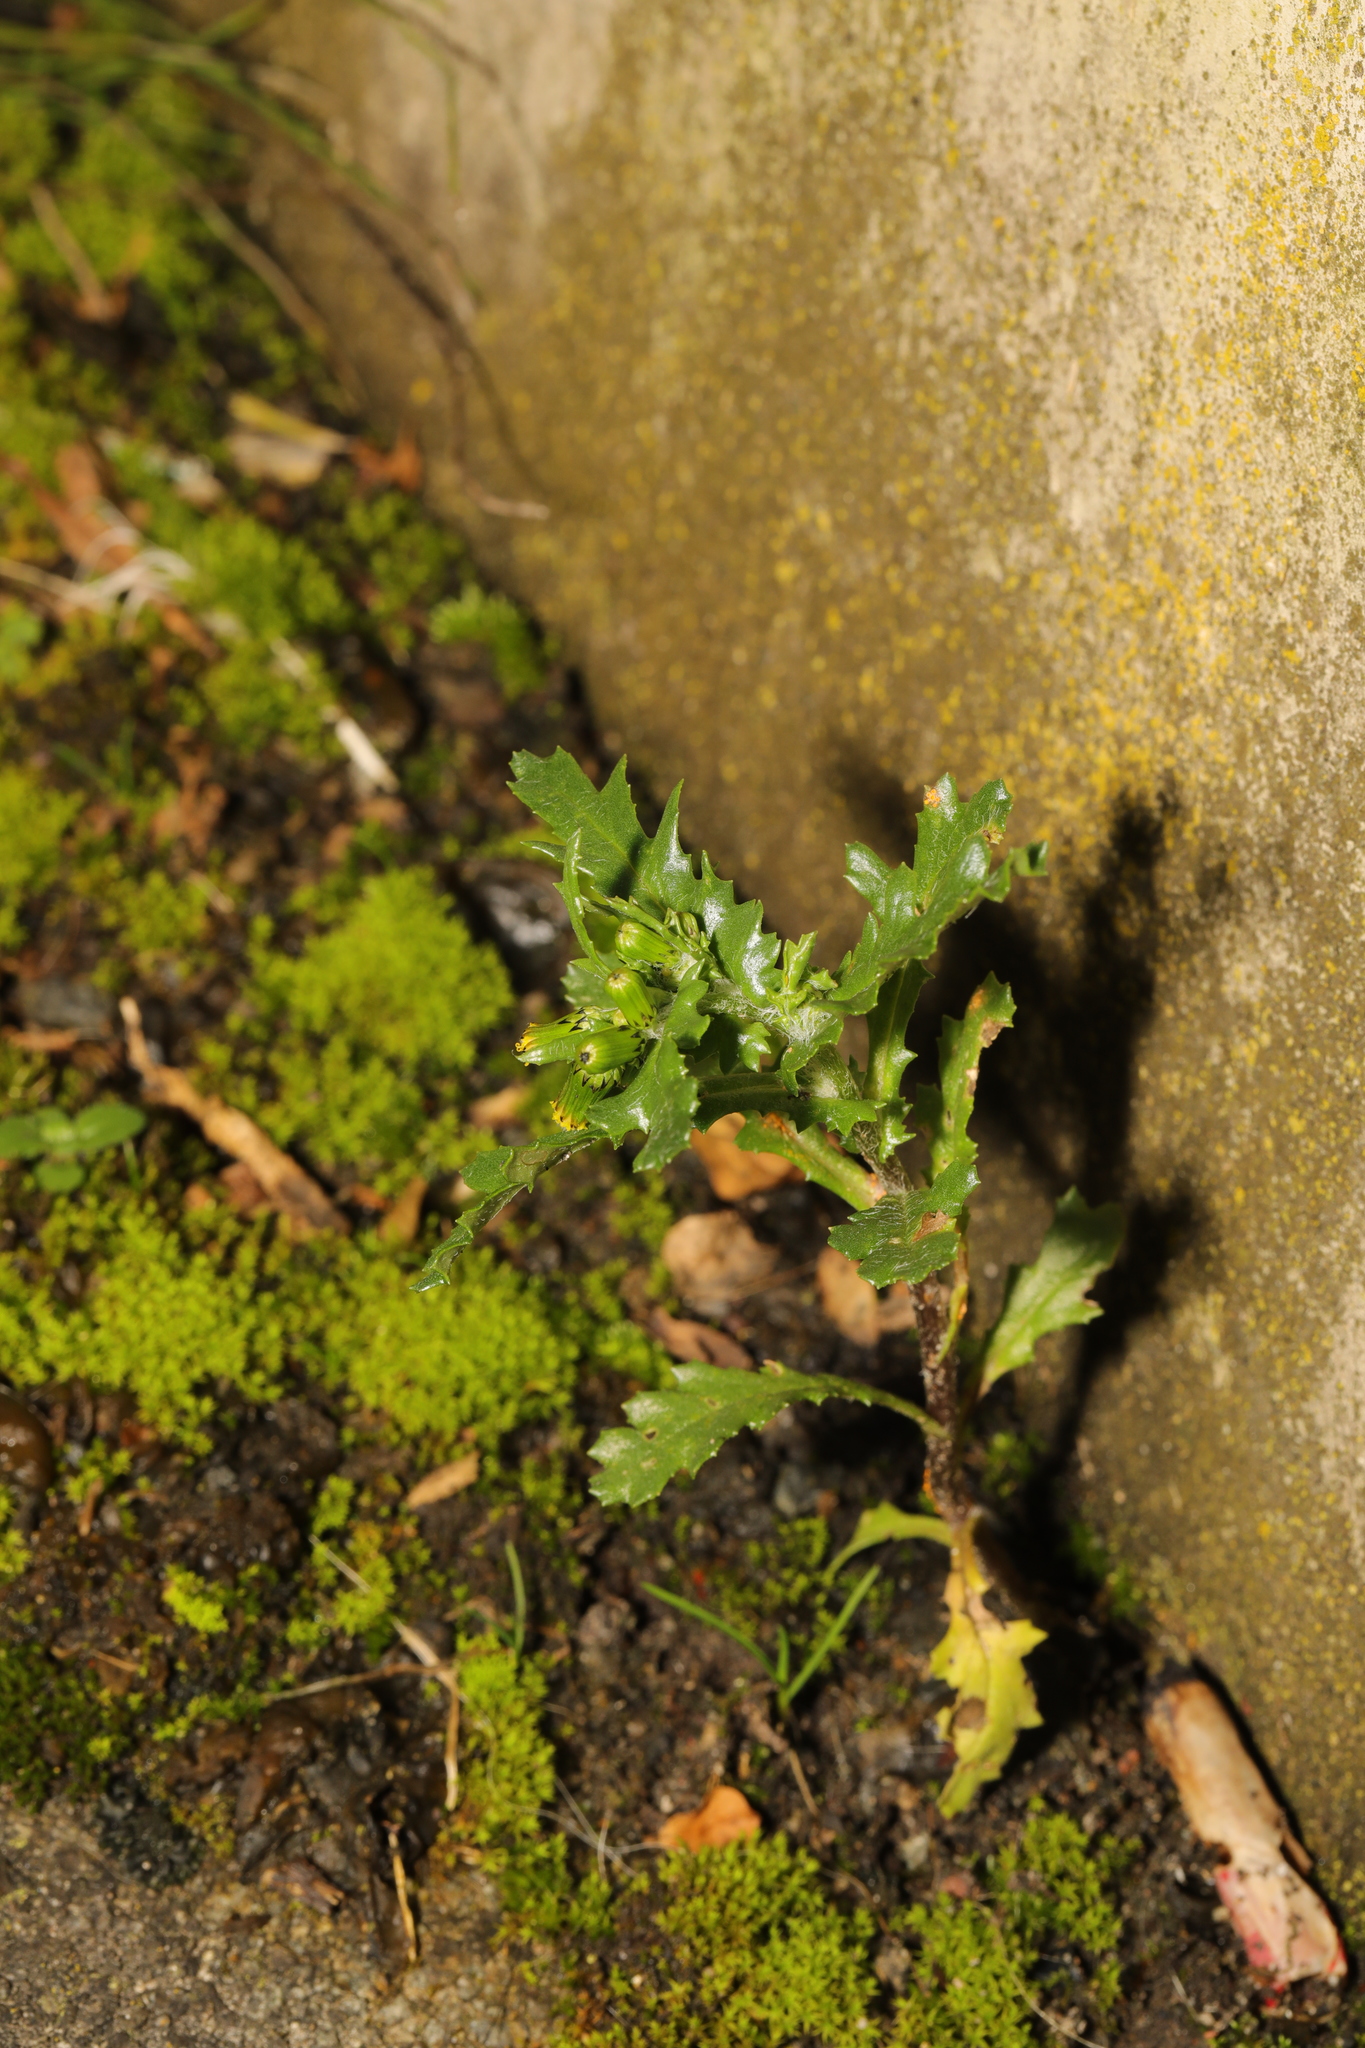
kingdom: Plantae
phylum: Tracheophyta
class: Magnoliopsida
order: Asterales
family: Asteraceae
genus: Senecio
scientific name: Senecio vulgaris
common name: Old-man-in-the-spring
